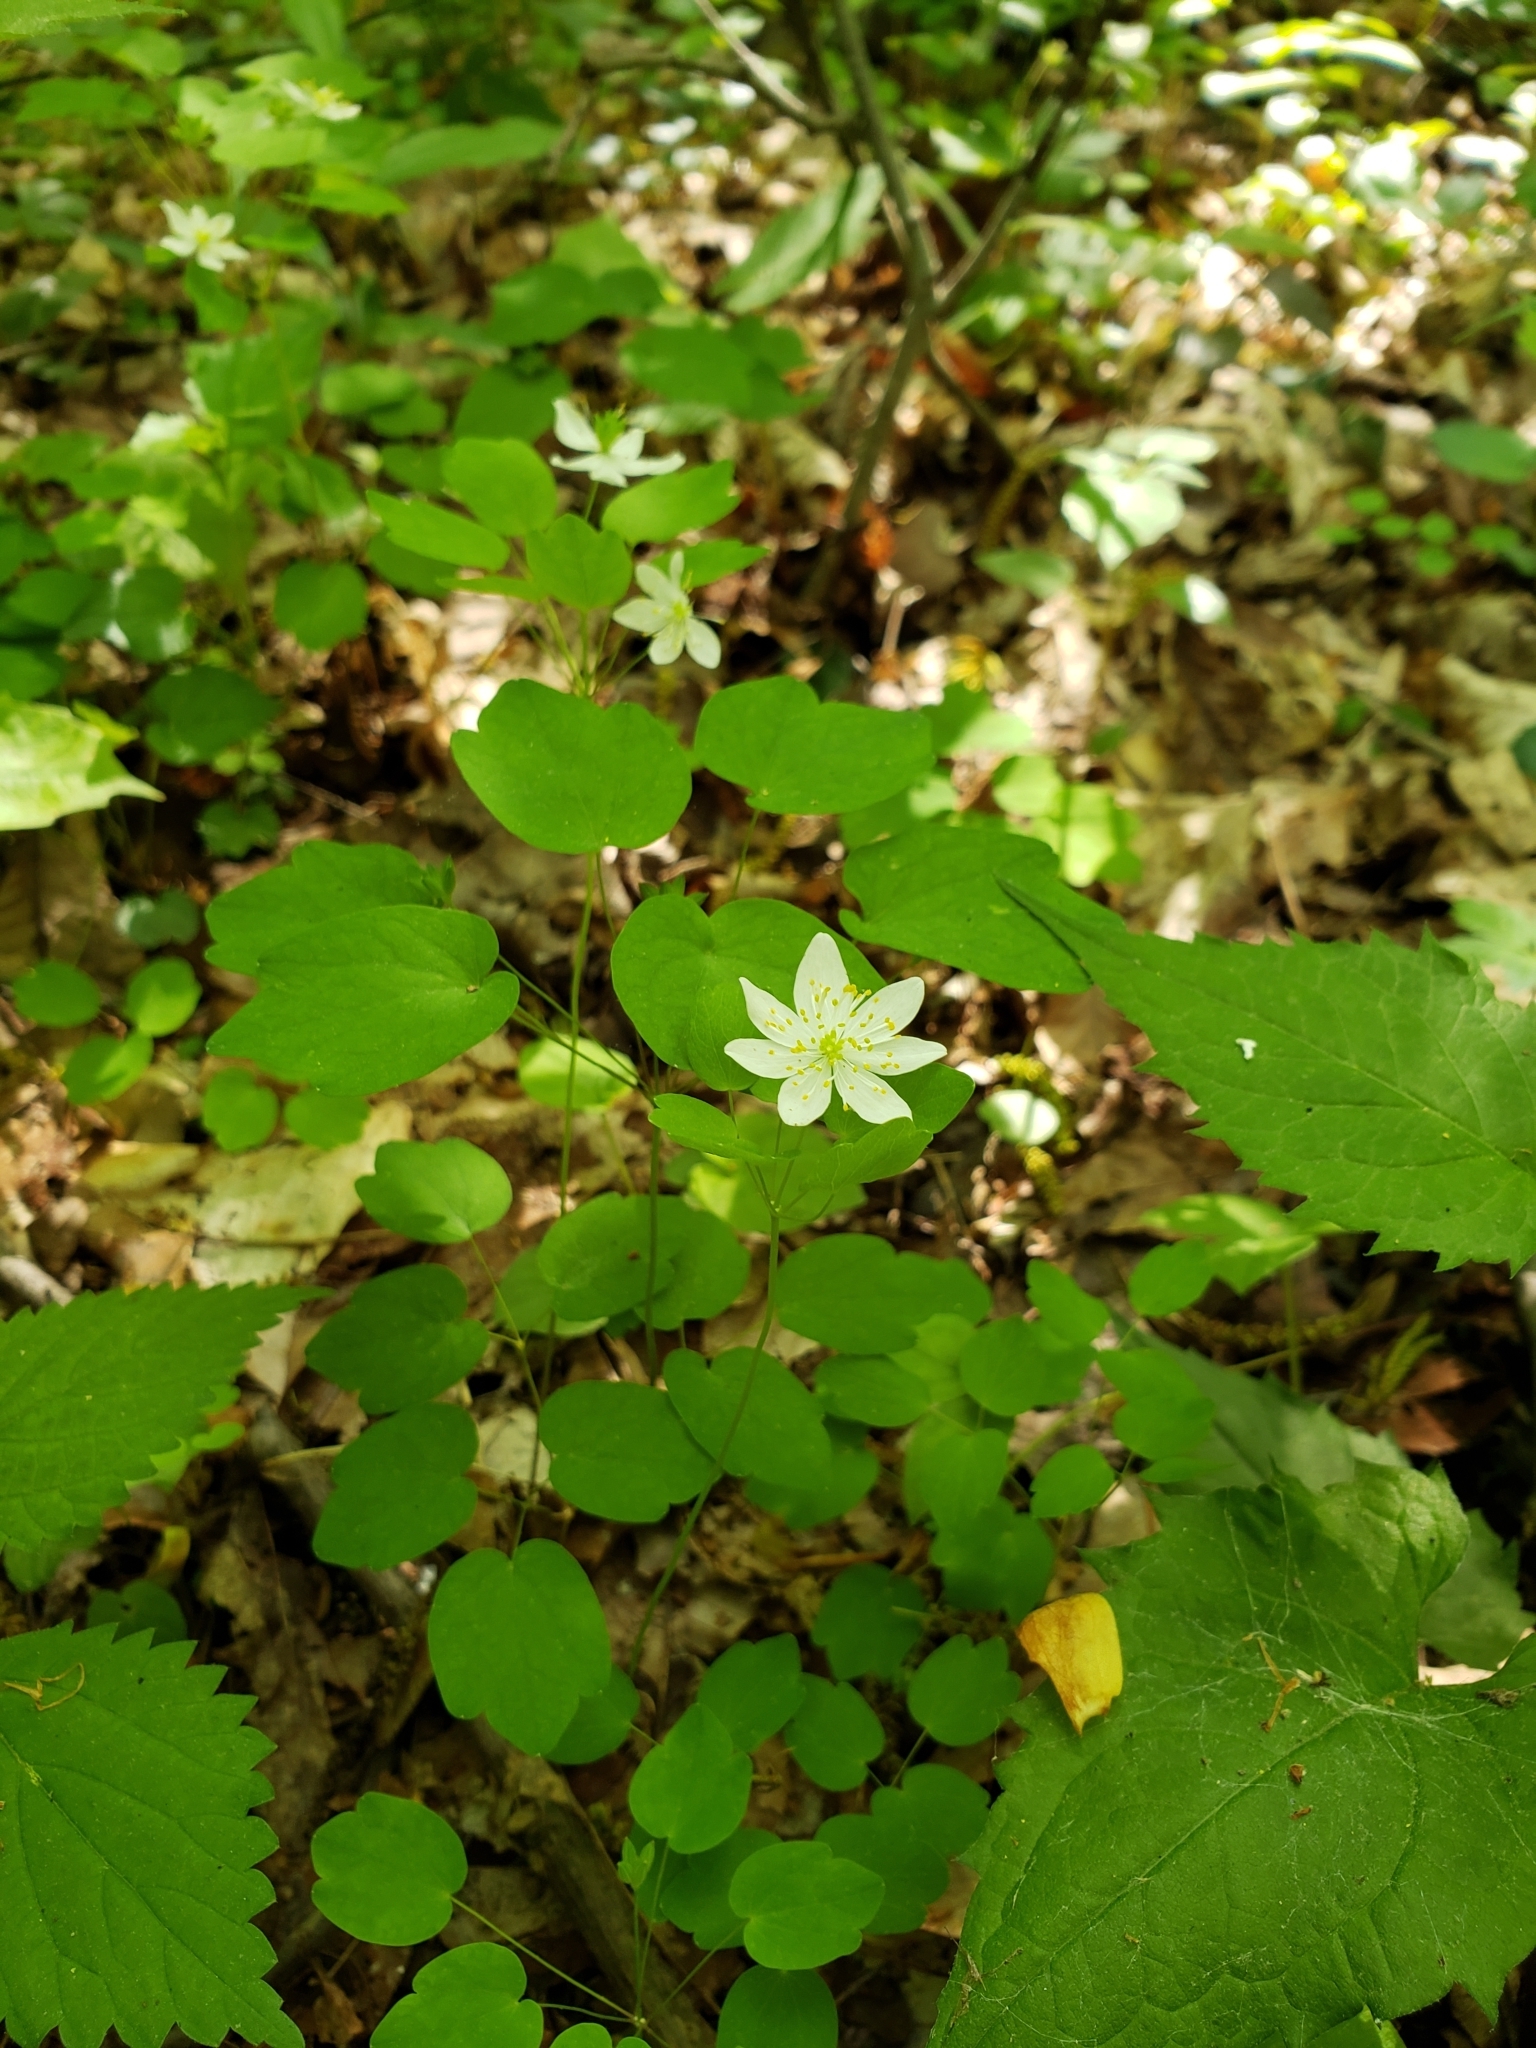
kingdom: Plantae
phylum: Tracheophyta
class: Magnoliopsida
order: Ranunculales
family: Ranunculaceae
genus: Thalictrum
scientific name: Thalictrum thalictroides
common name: Rue-anemone
